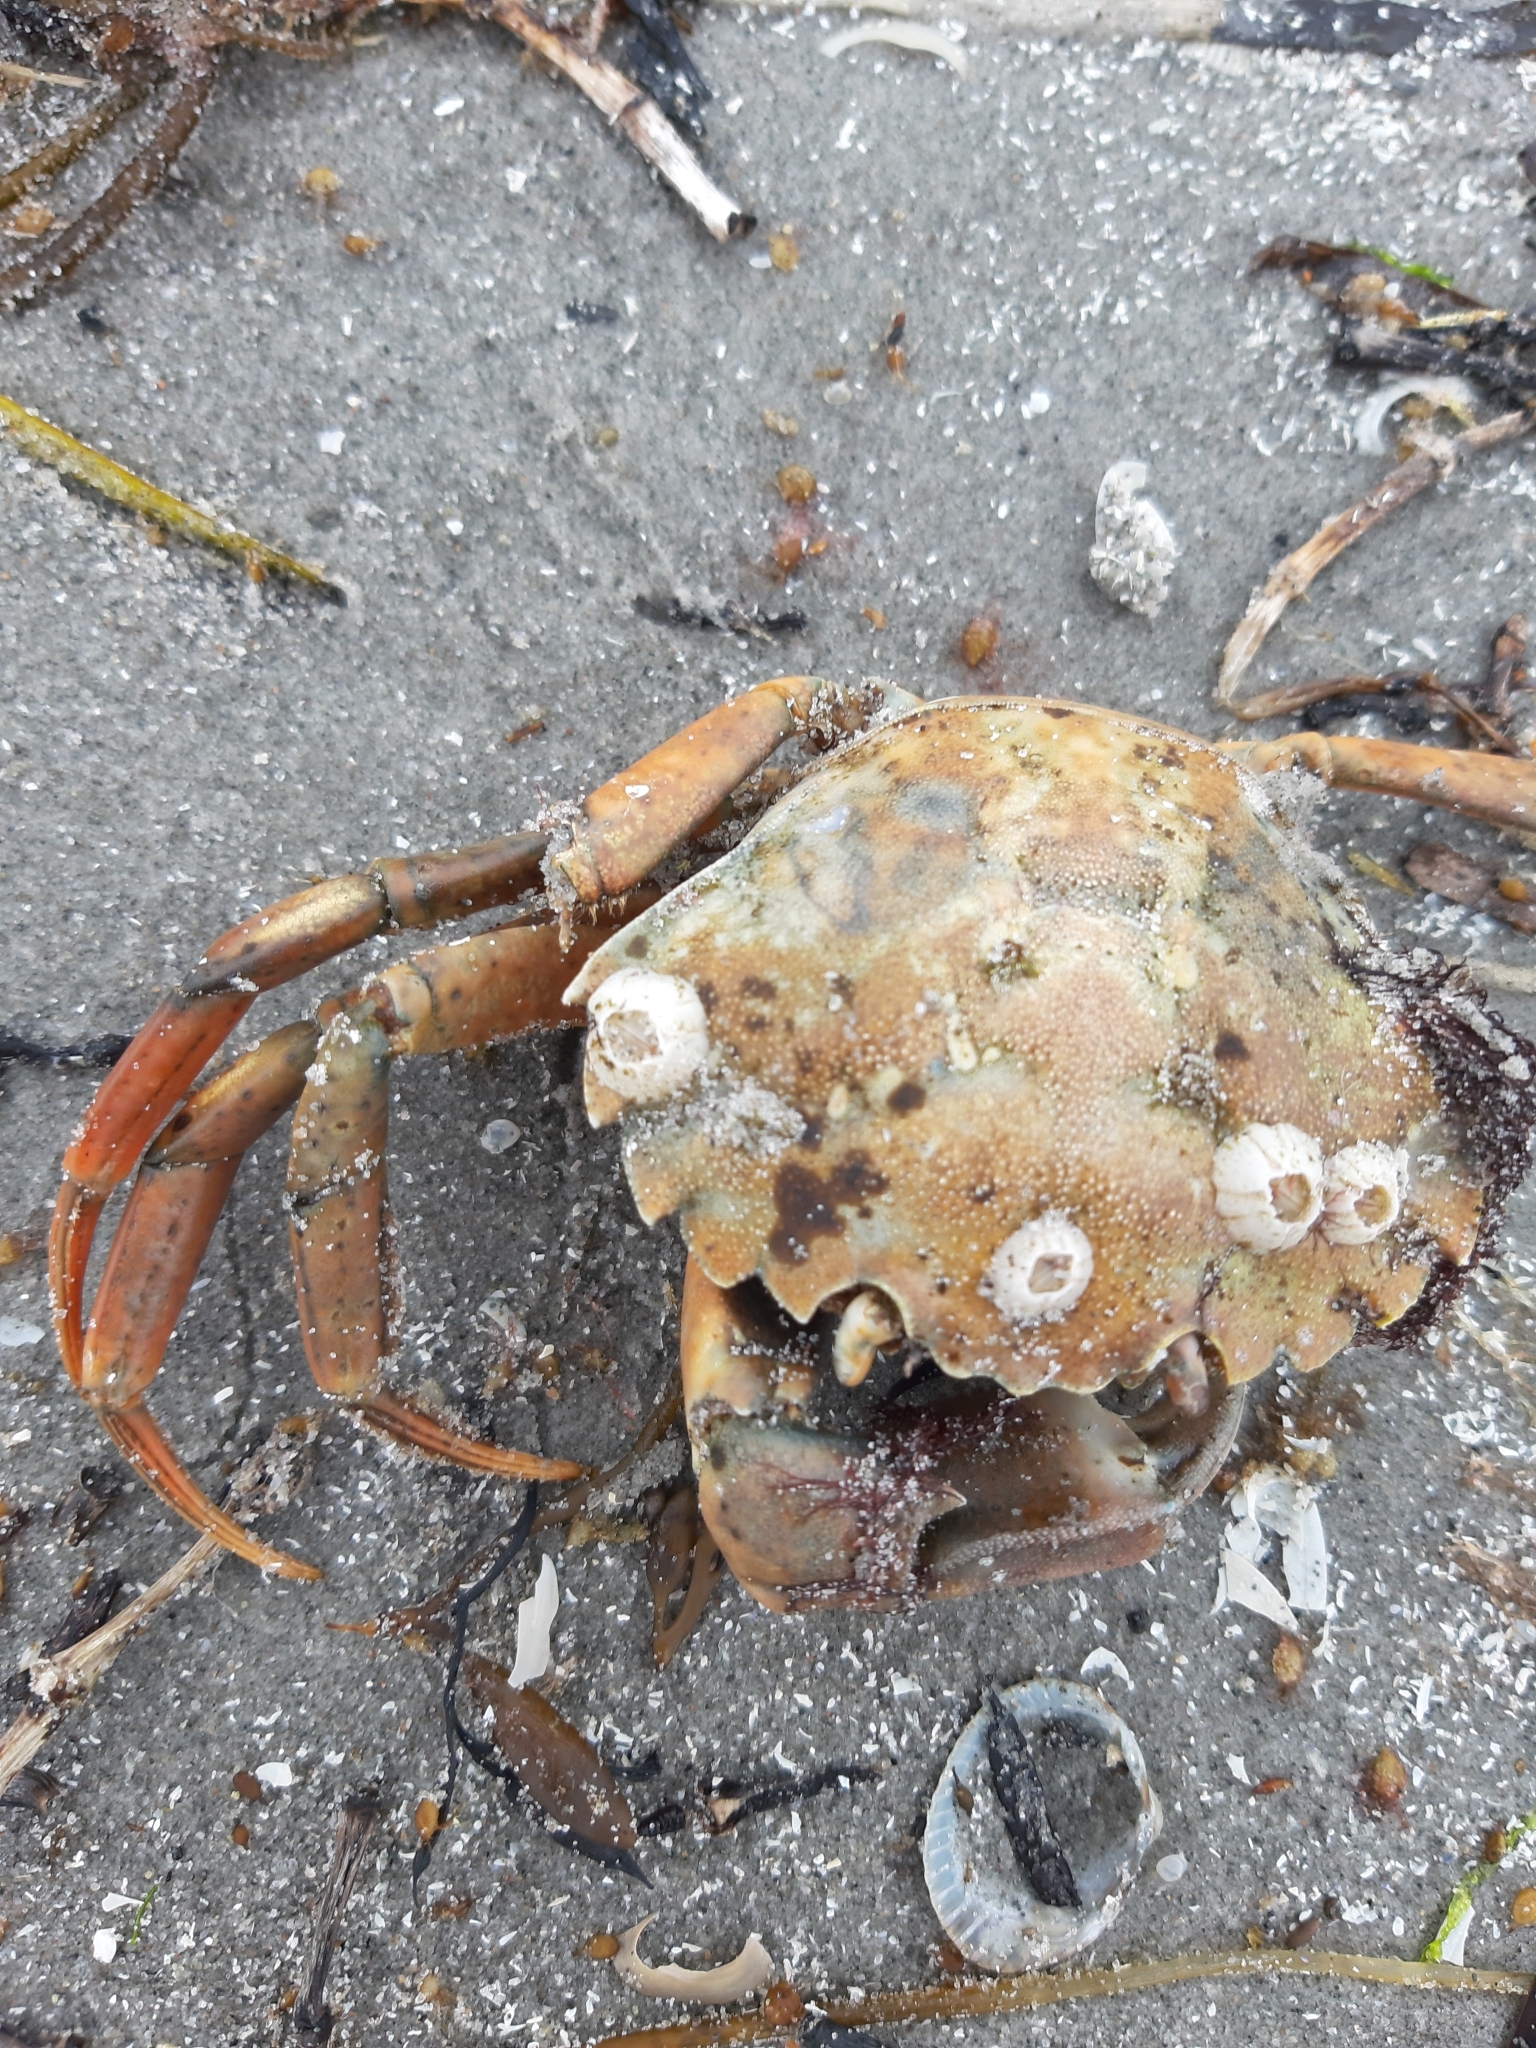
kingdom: Animalia
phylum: Arthropoda
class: Malacostraca
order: Decapoda
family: Carcinidae
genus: Carcinus
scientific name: Carcinus maenas
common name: European green crab
